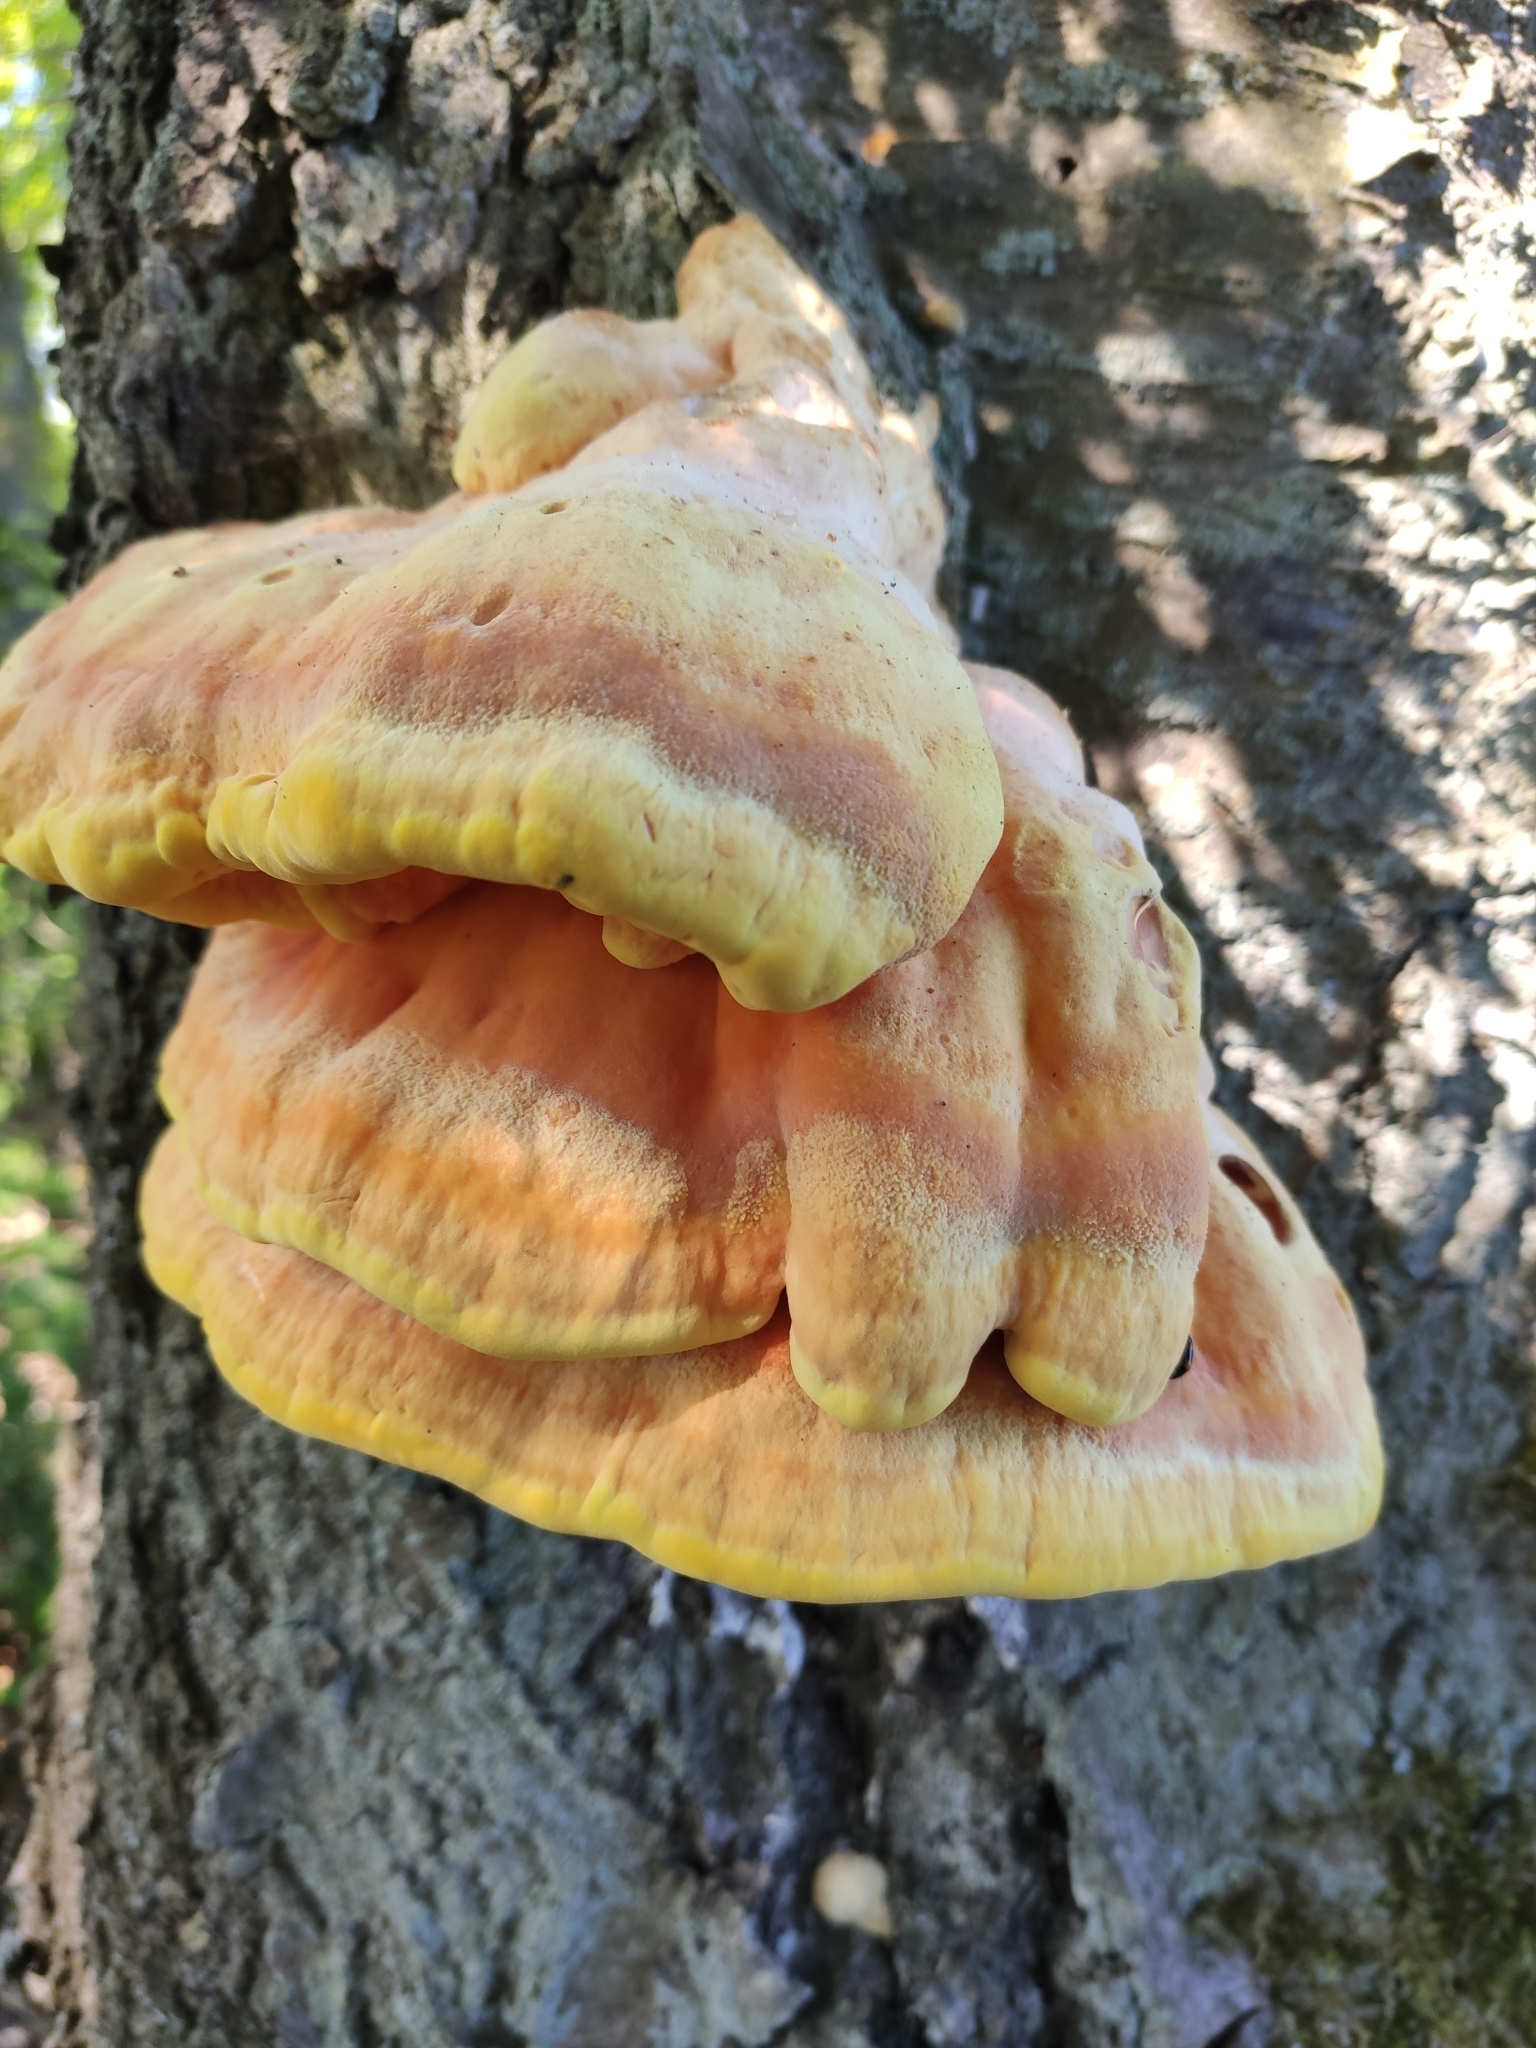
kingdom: Fungi
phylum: Basidiomycota
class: Agaricomycetes
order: Polyporales
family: Laetiporaceae
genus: Laetiporus
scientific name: Laetiporus sulphureus
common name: Chicken of the woods
